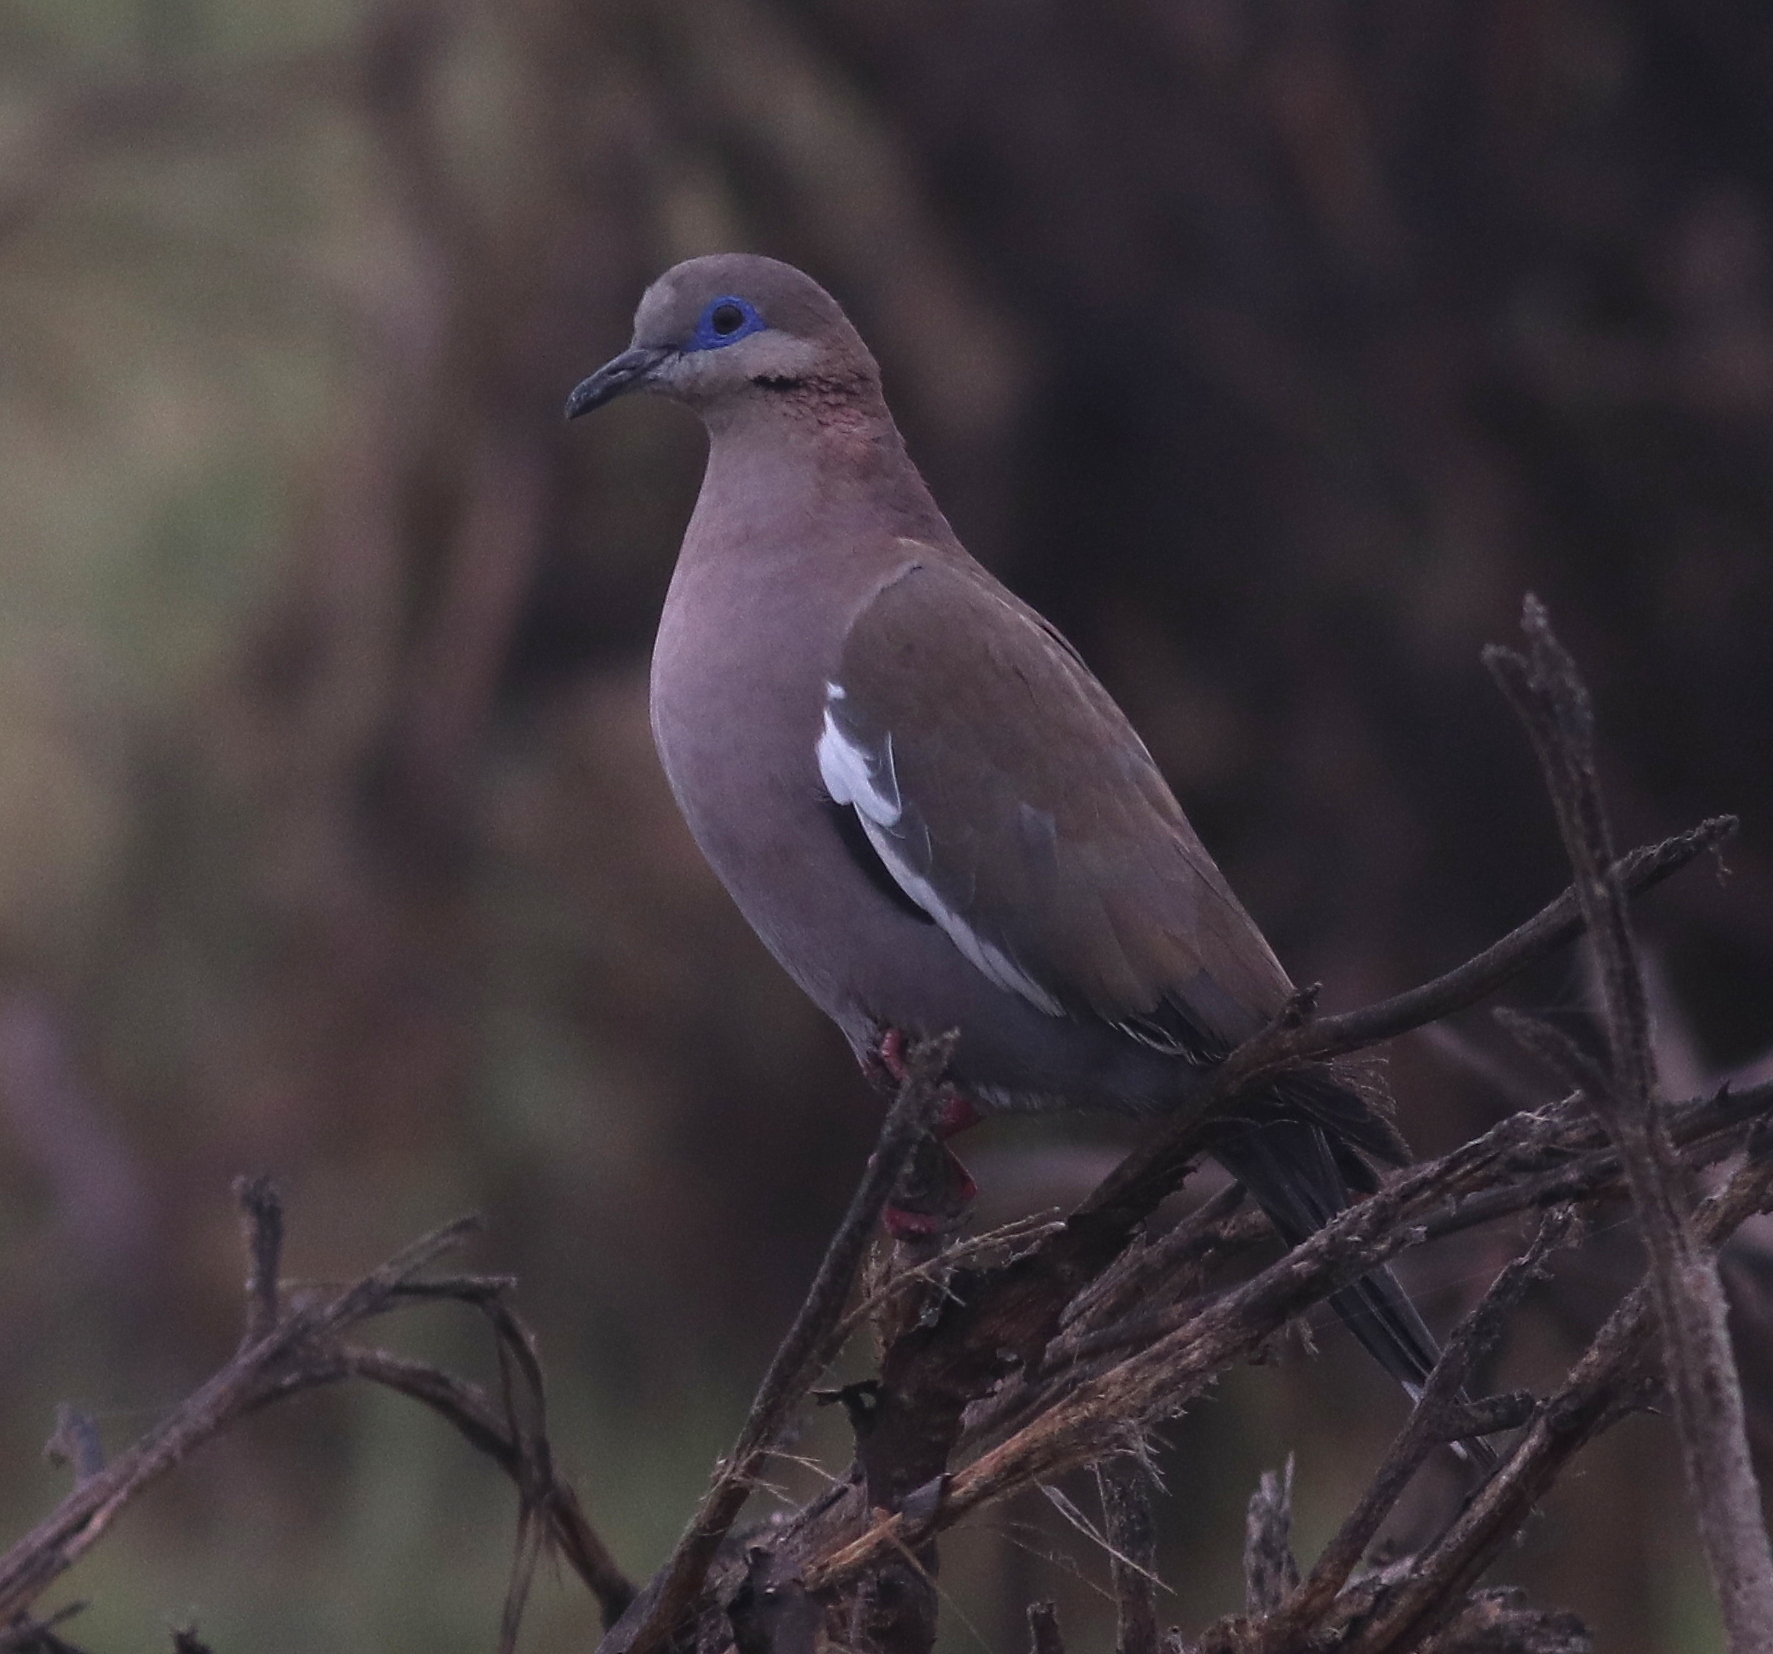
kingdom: Animalia
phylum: Chordata
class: Aves
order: Columbiformes
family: Columbidae
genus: Zenaida
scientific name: Zenaida meloda
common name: West peruvian dove
